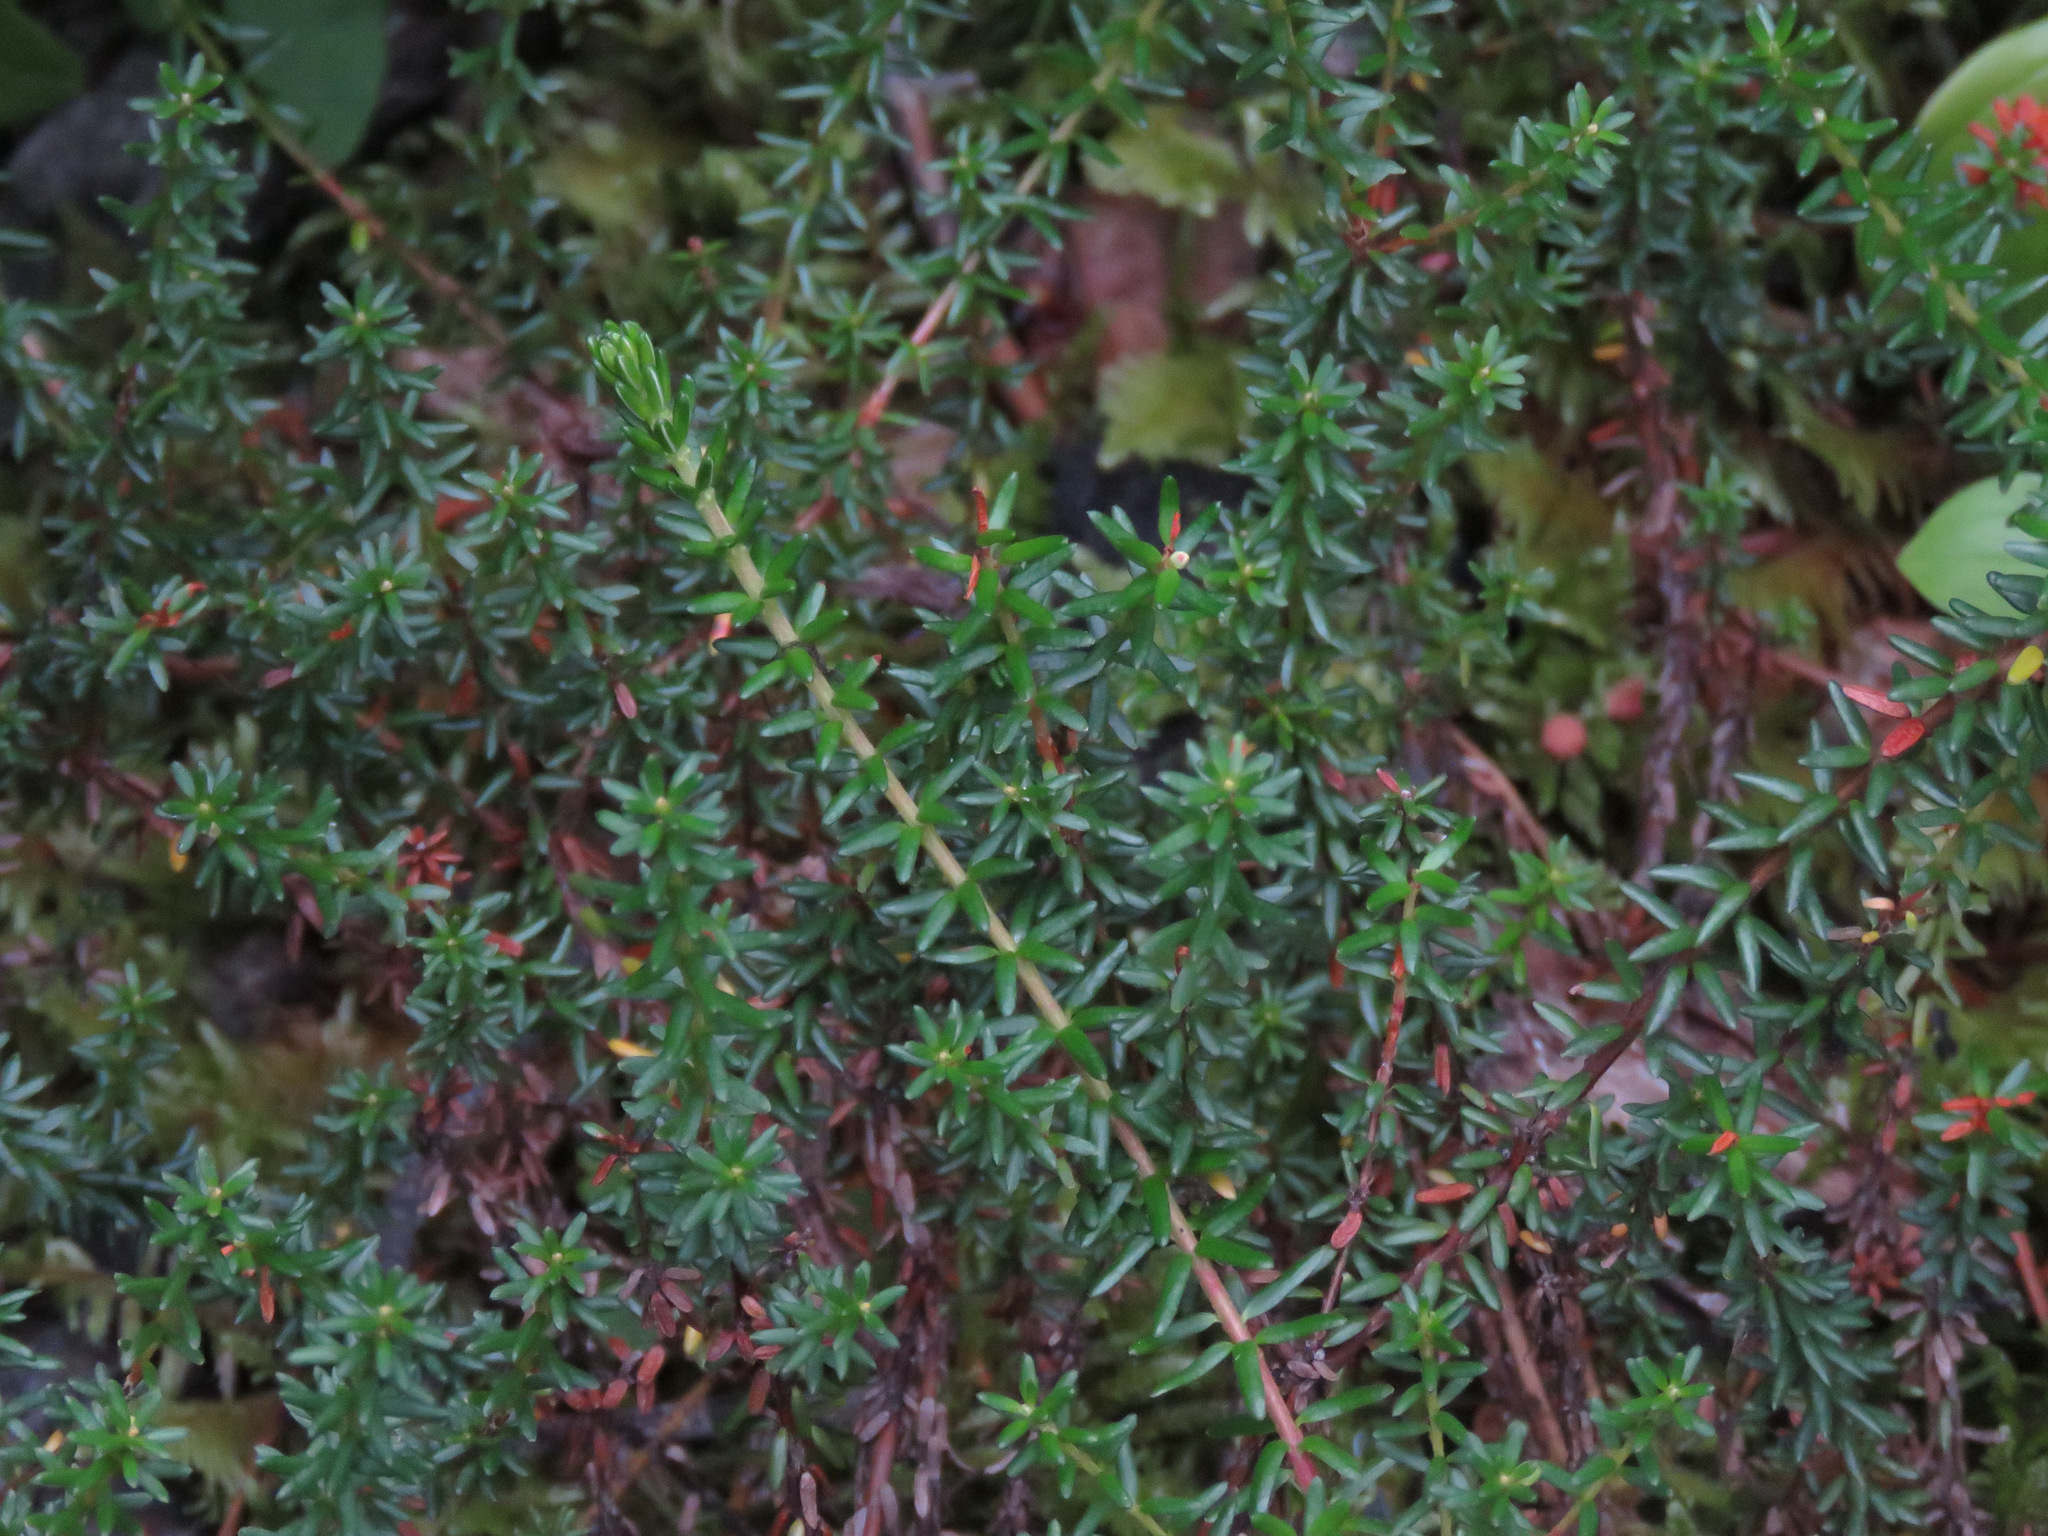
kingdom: Plantae
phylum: Tracheophyta
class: Magnoliopsida
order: Ericales
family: Ericaceae
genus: Empetrum
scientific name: Empetrum nigrum
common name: Black crowberry
